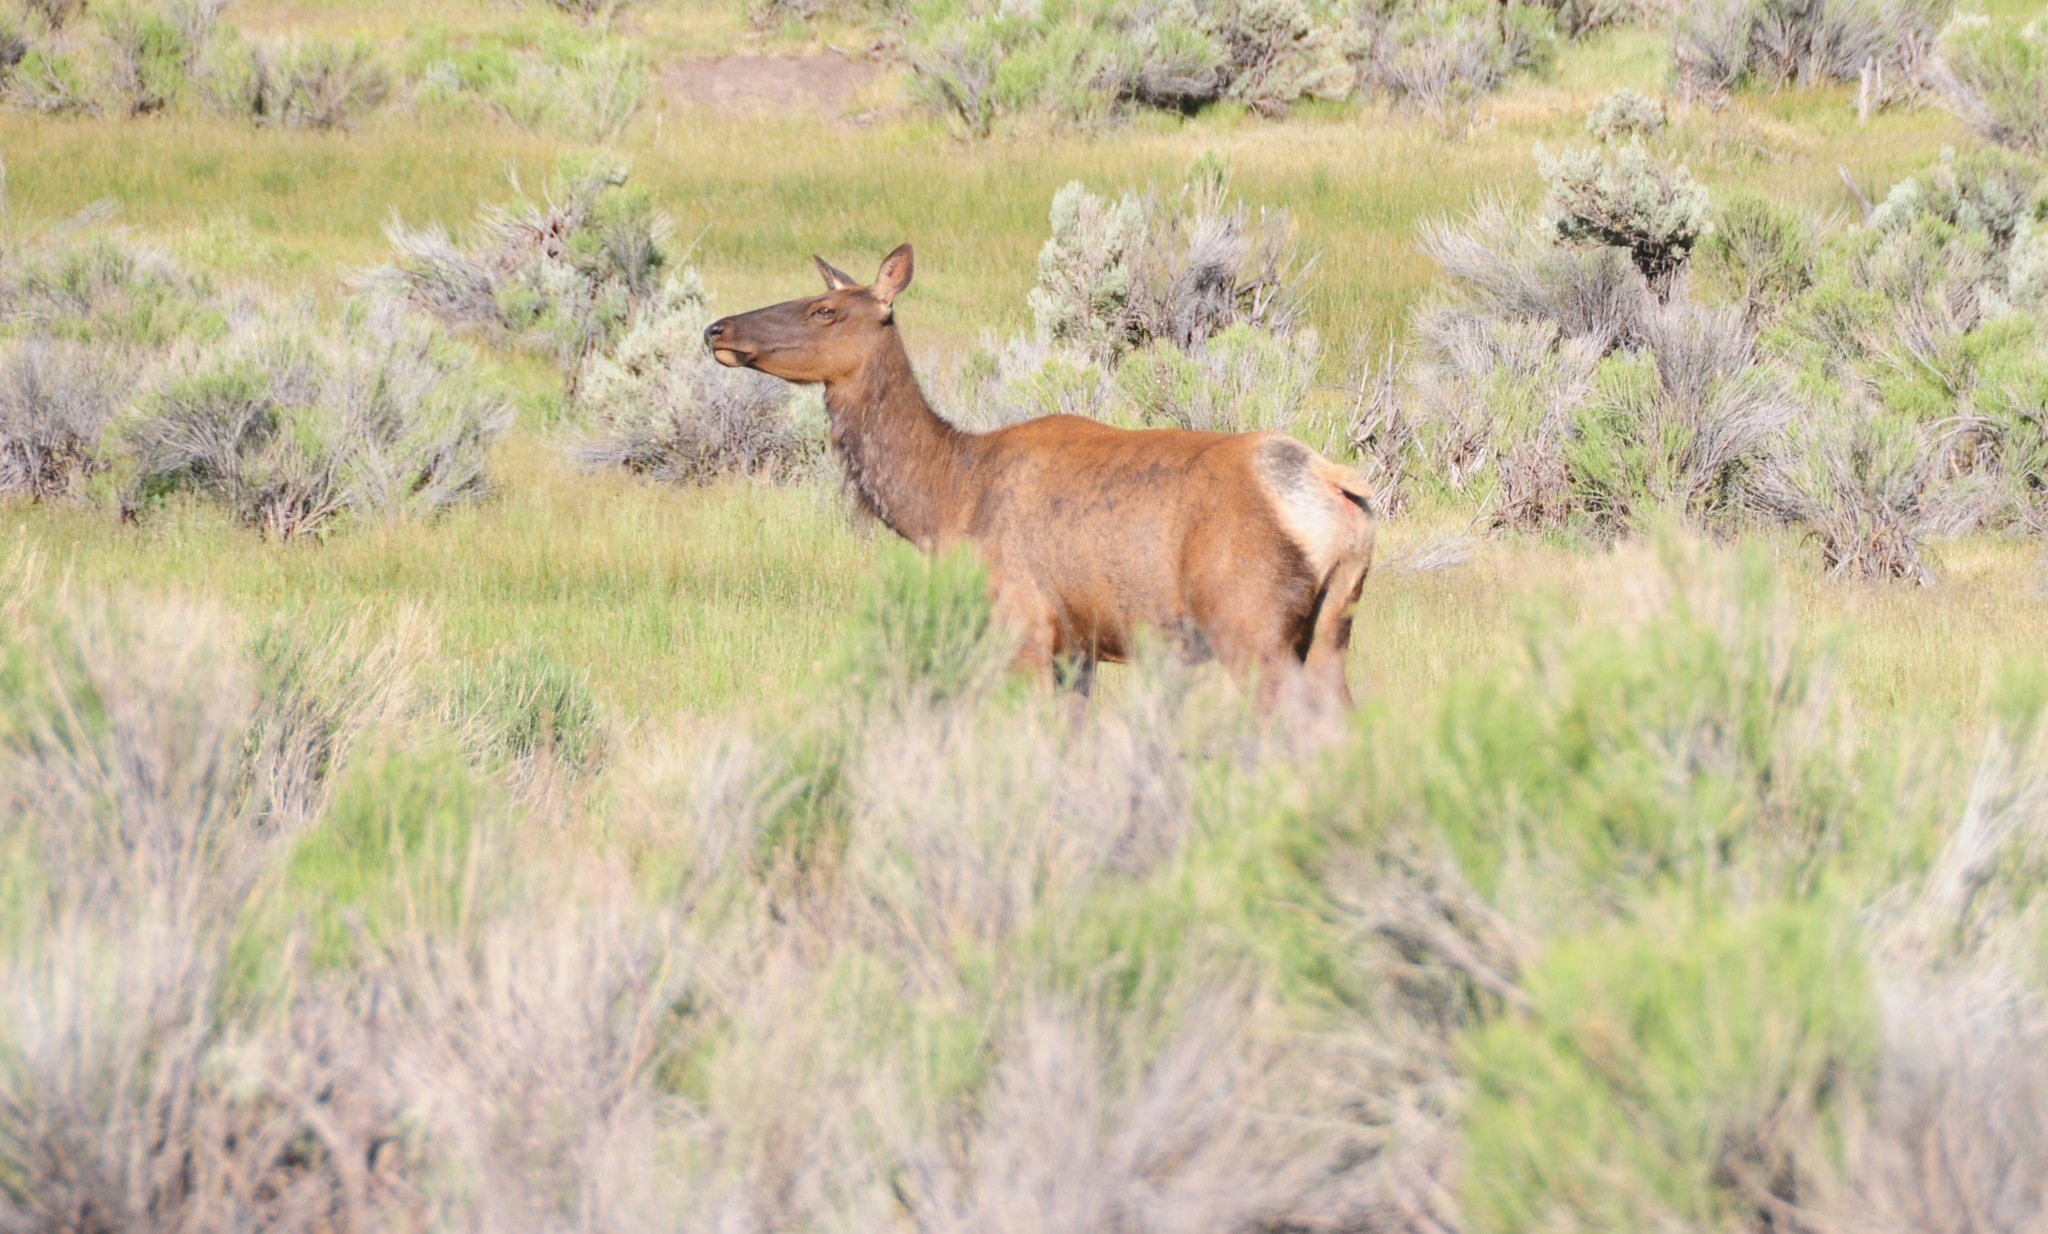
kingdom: Animalia
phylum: Chordata
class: Mammalia
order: Artiodactyla
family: Cervidae
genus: Cervus
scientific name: Cervus elaphus
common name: Red deer
